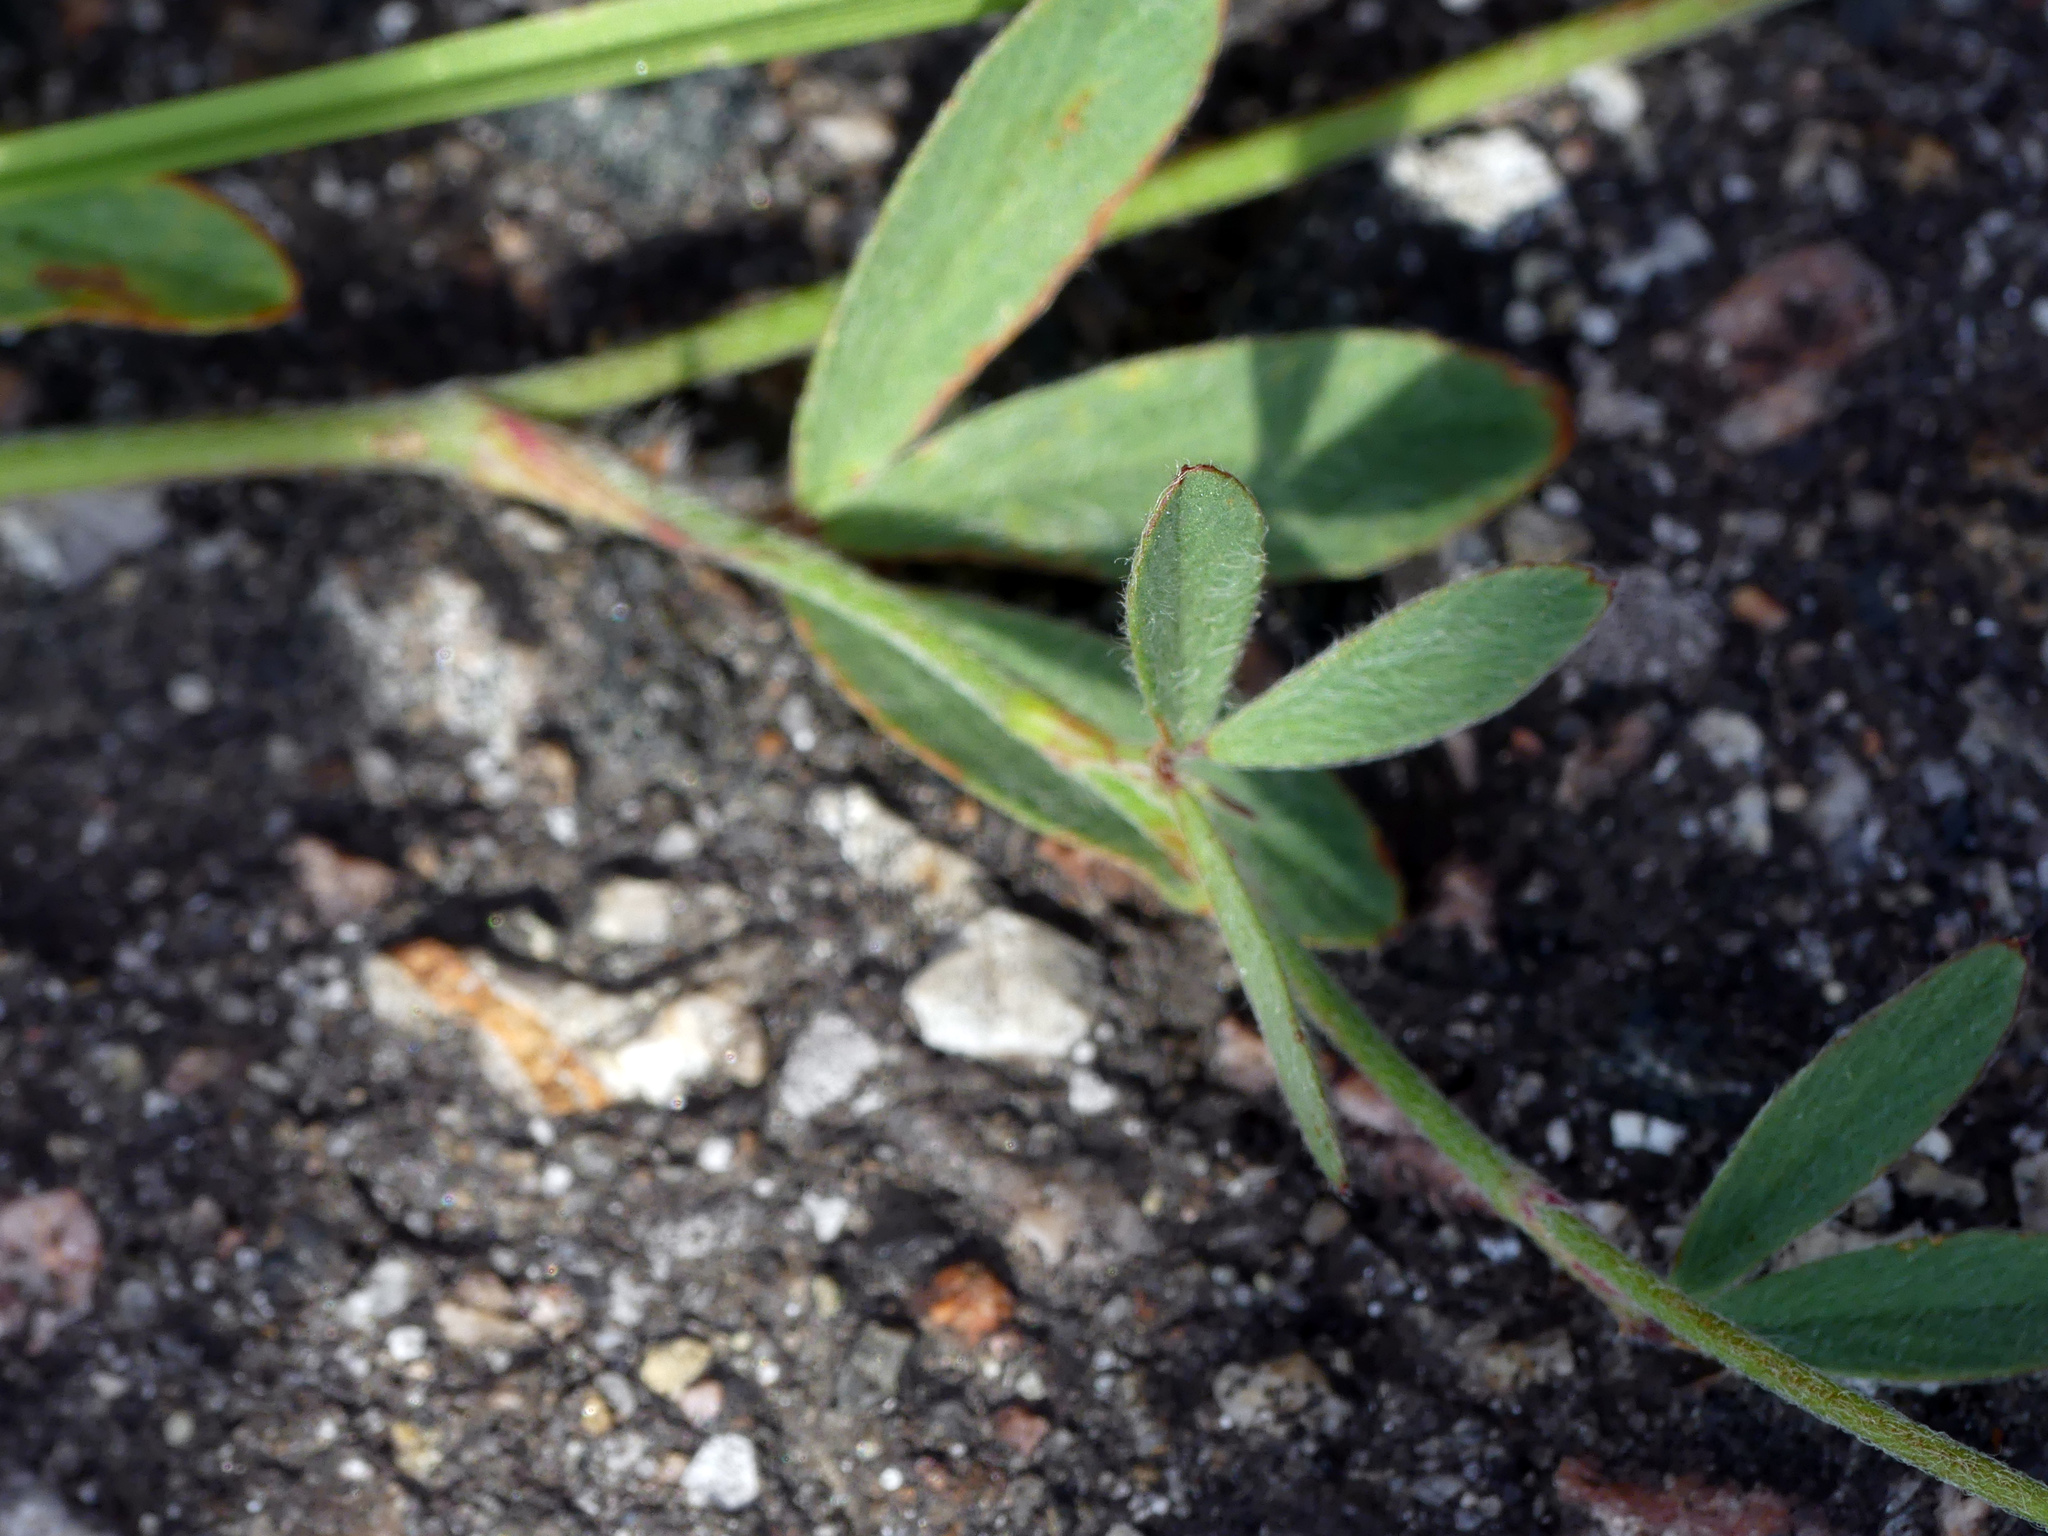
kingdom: Plantae
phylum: Tracheophyta
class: Magnoliopsida
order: Fabales
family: Fabaceae
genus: Trifolium
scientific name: Trifolium arvense
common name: Hare's-foot clover
